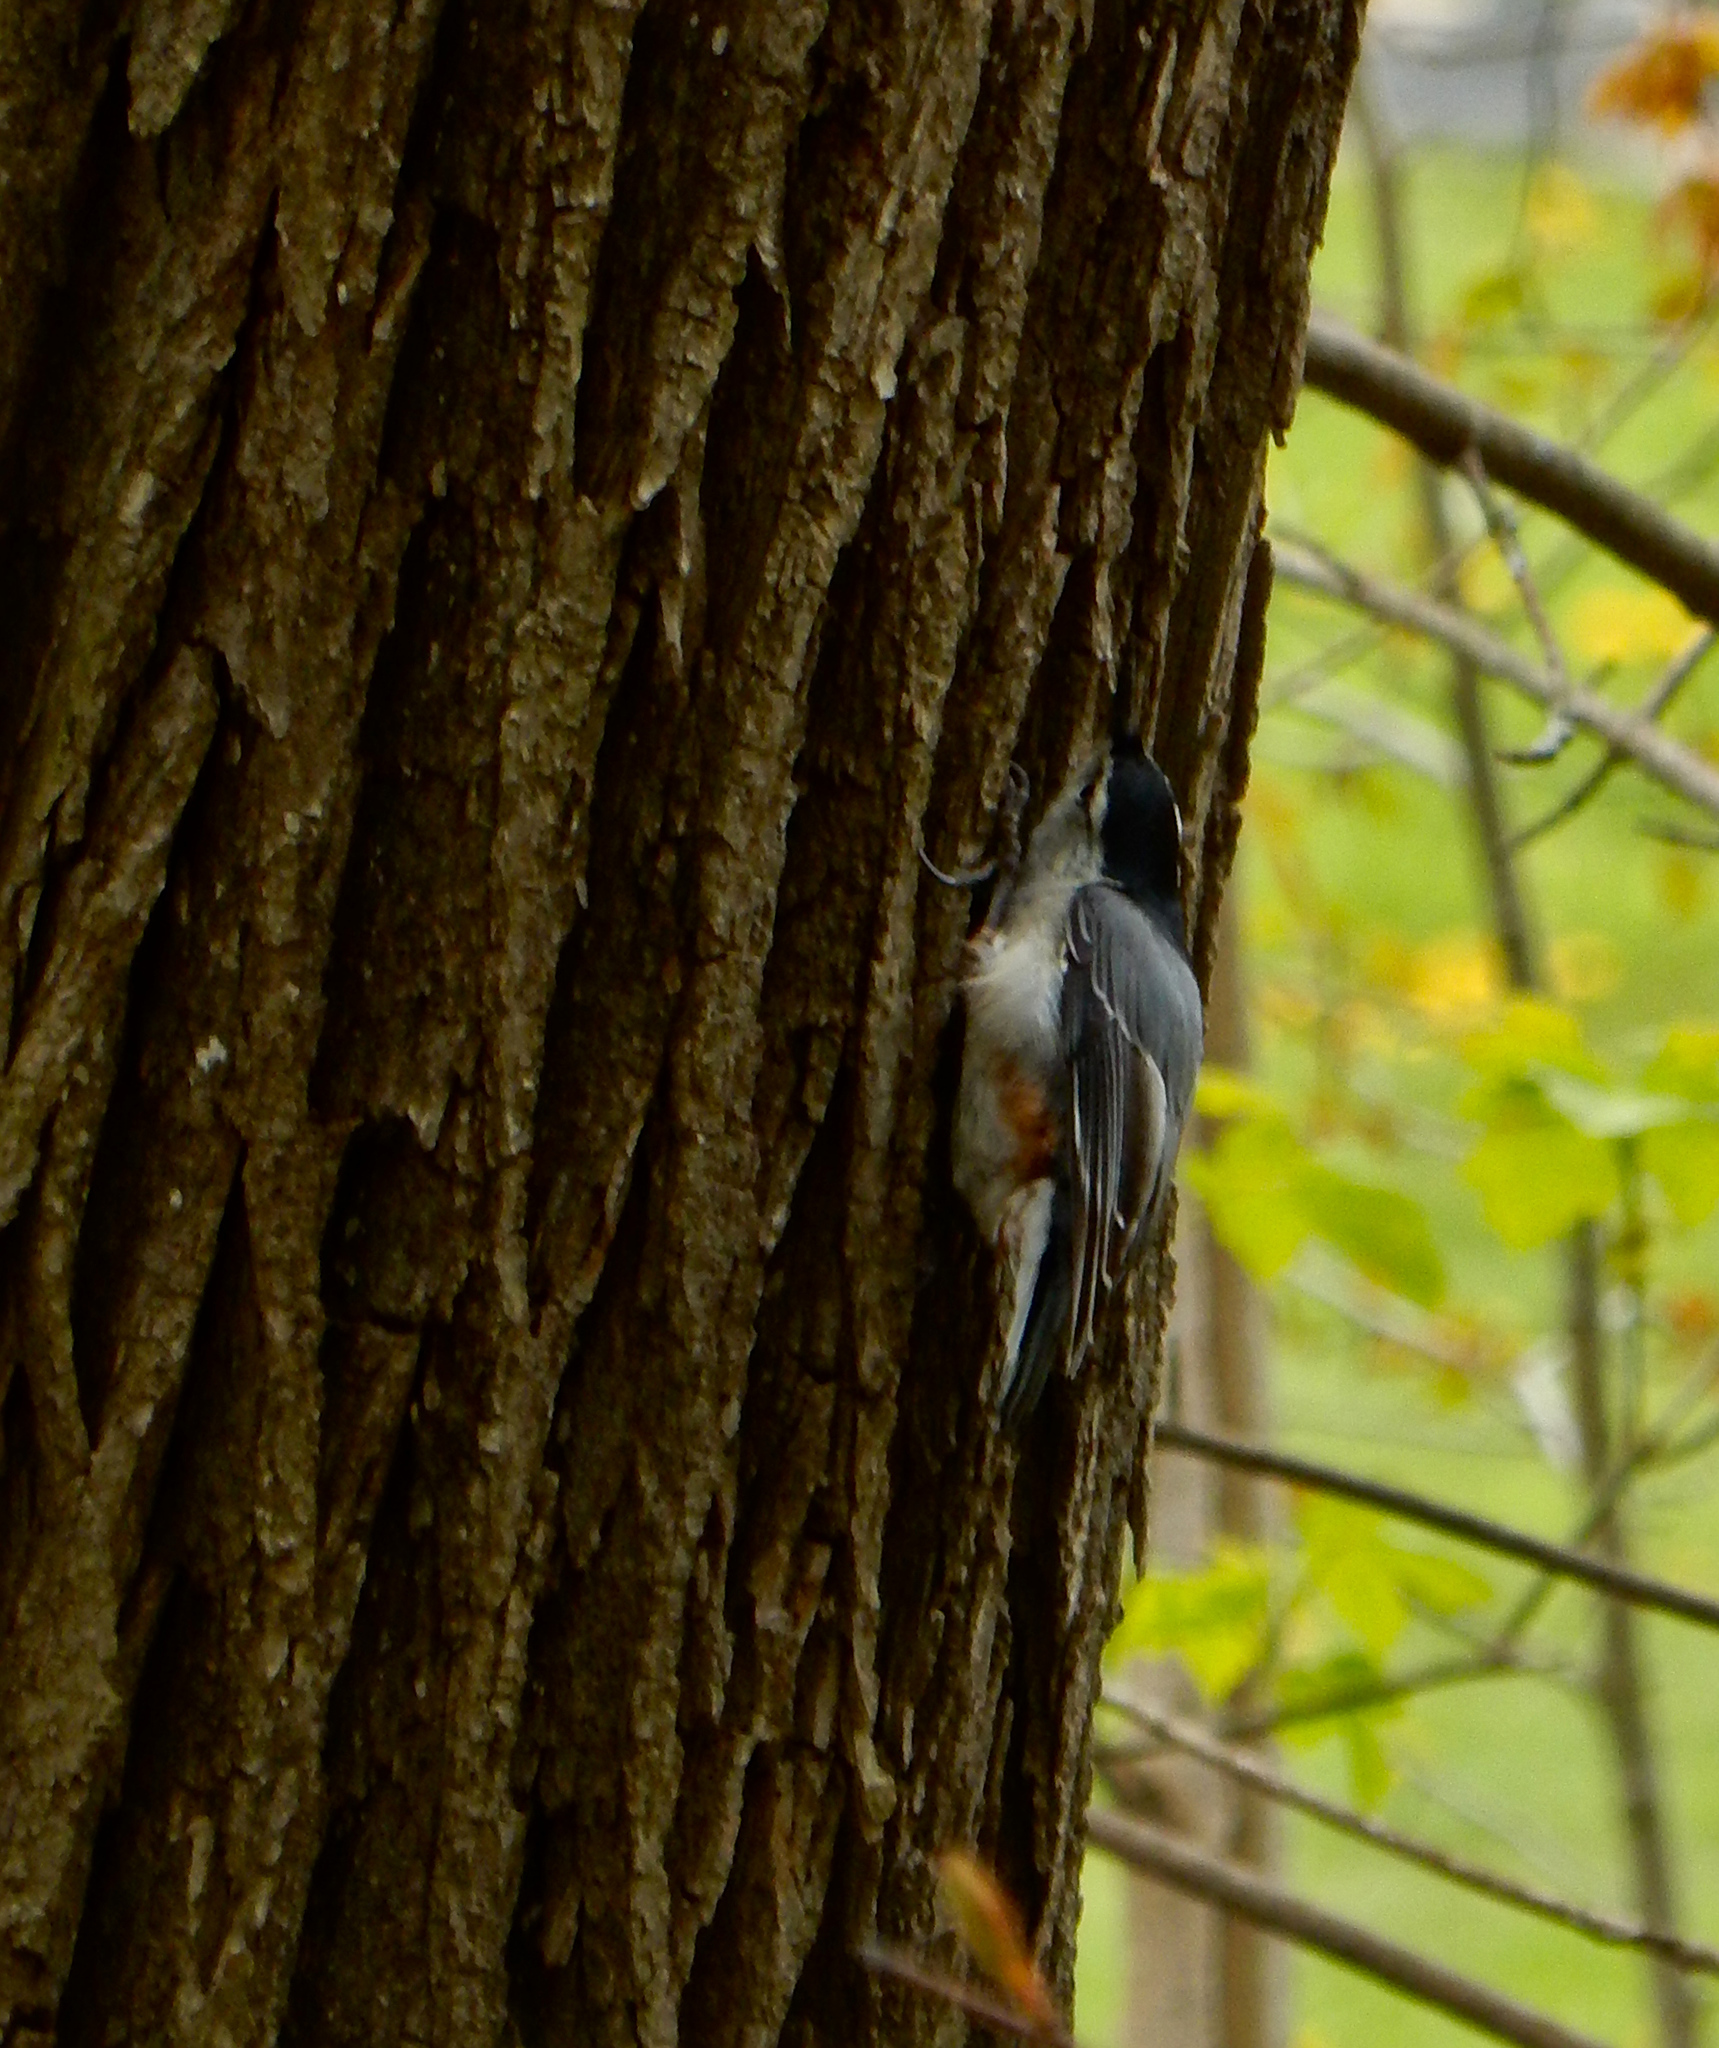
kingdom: Animalia
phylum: Chordata
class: Aves
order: Passeriformes
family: Sittidae
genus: Sitta
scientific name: Sitta carolinensis
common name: White-breasted nuthatch
